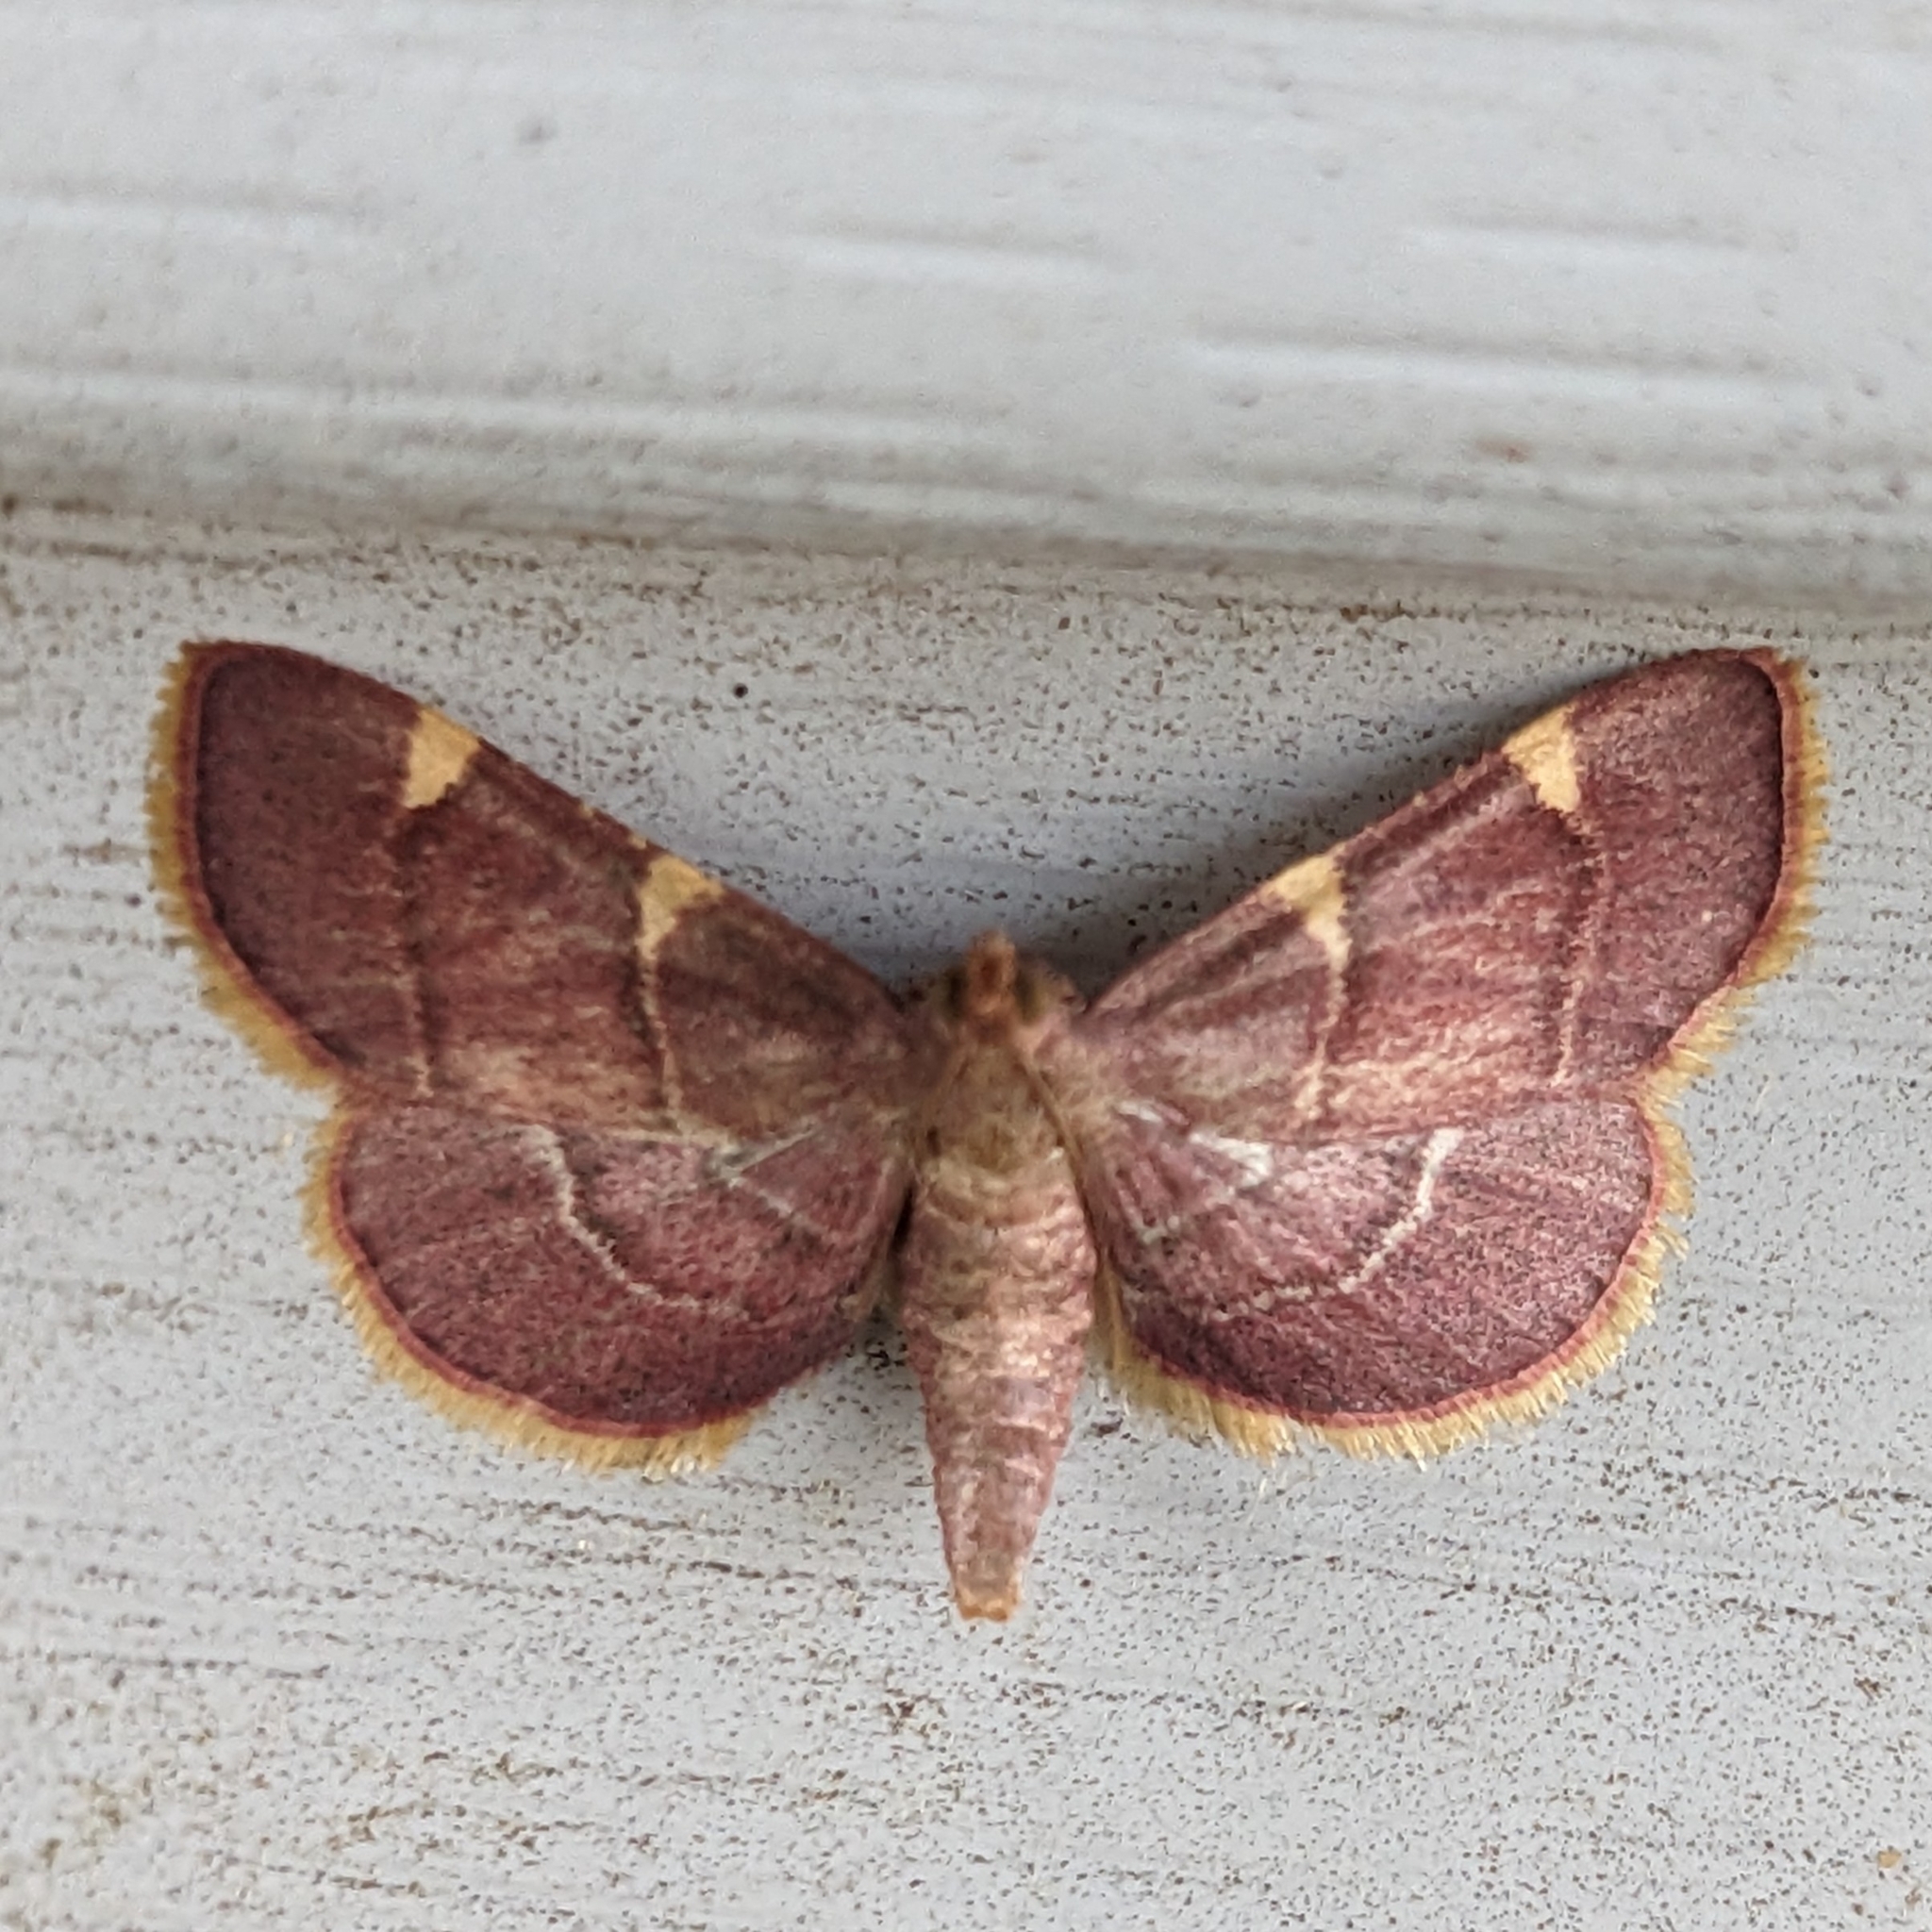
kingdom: Animalia
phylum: Arthropoda
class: Insecta
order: Lepidoptera
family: Pyralidae
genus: Hypsopygia
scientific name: Hypsopygia olinalis
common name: Yellow-fringed dolichomia moth
